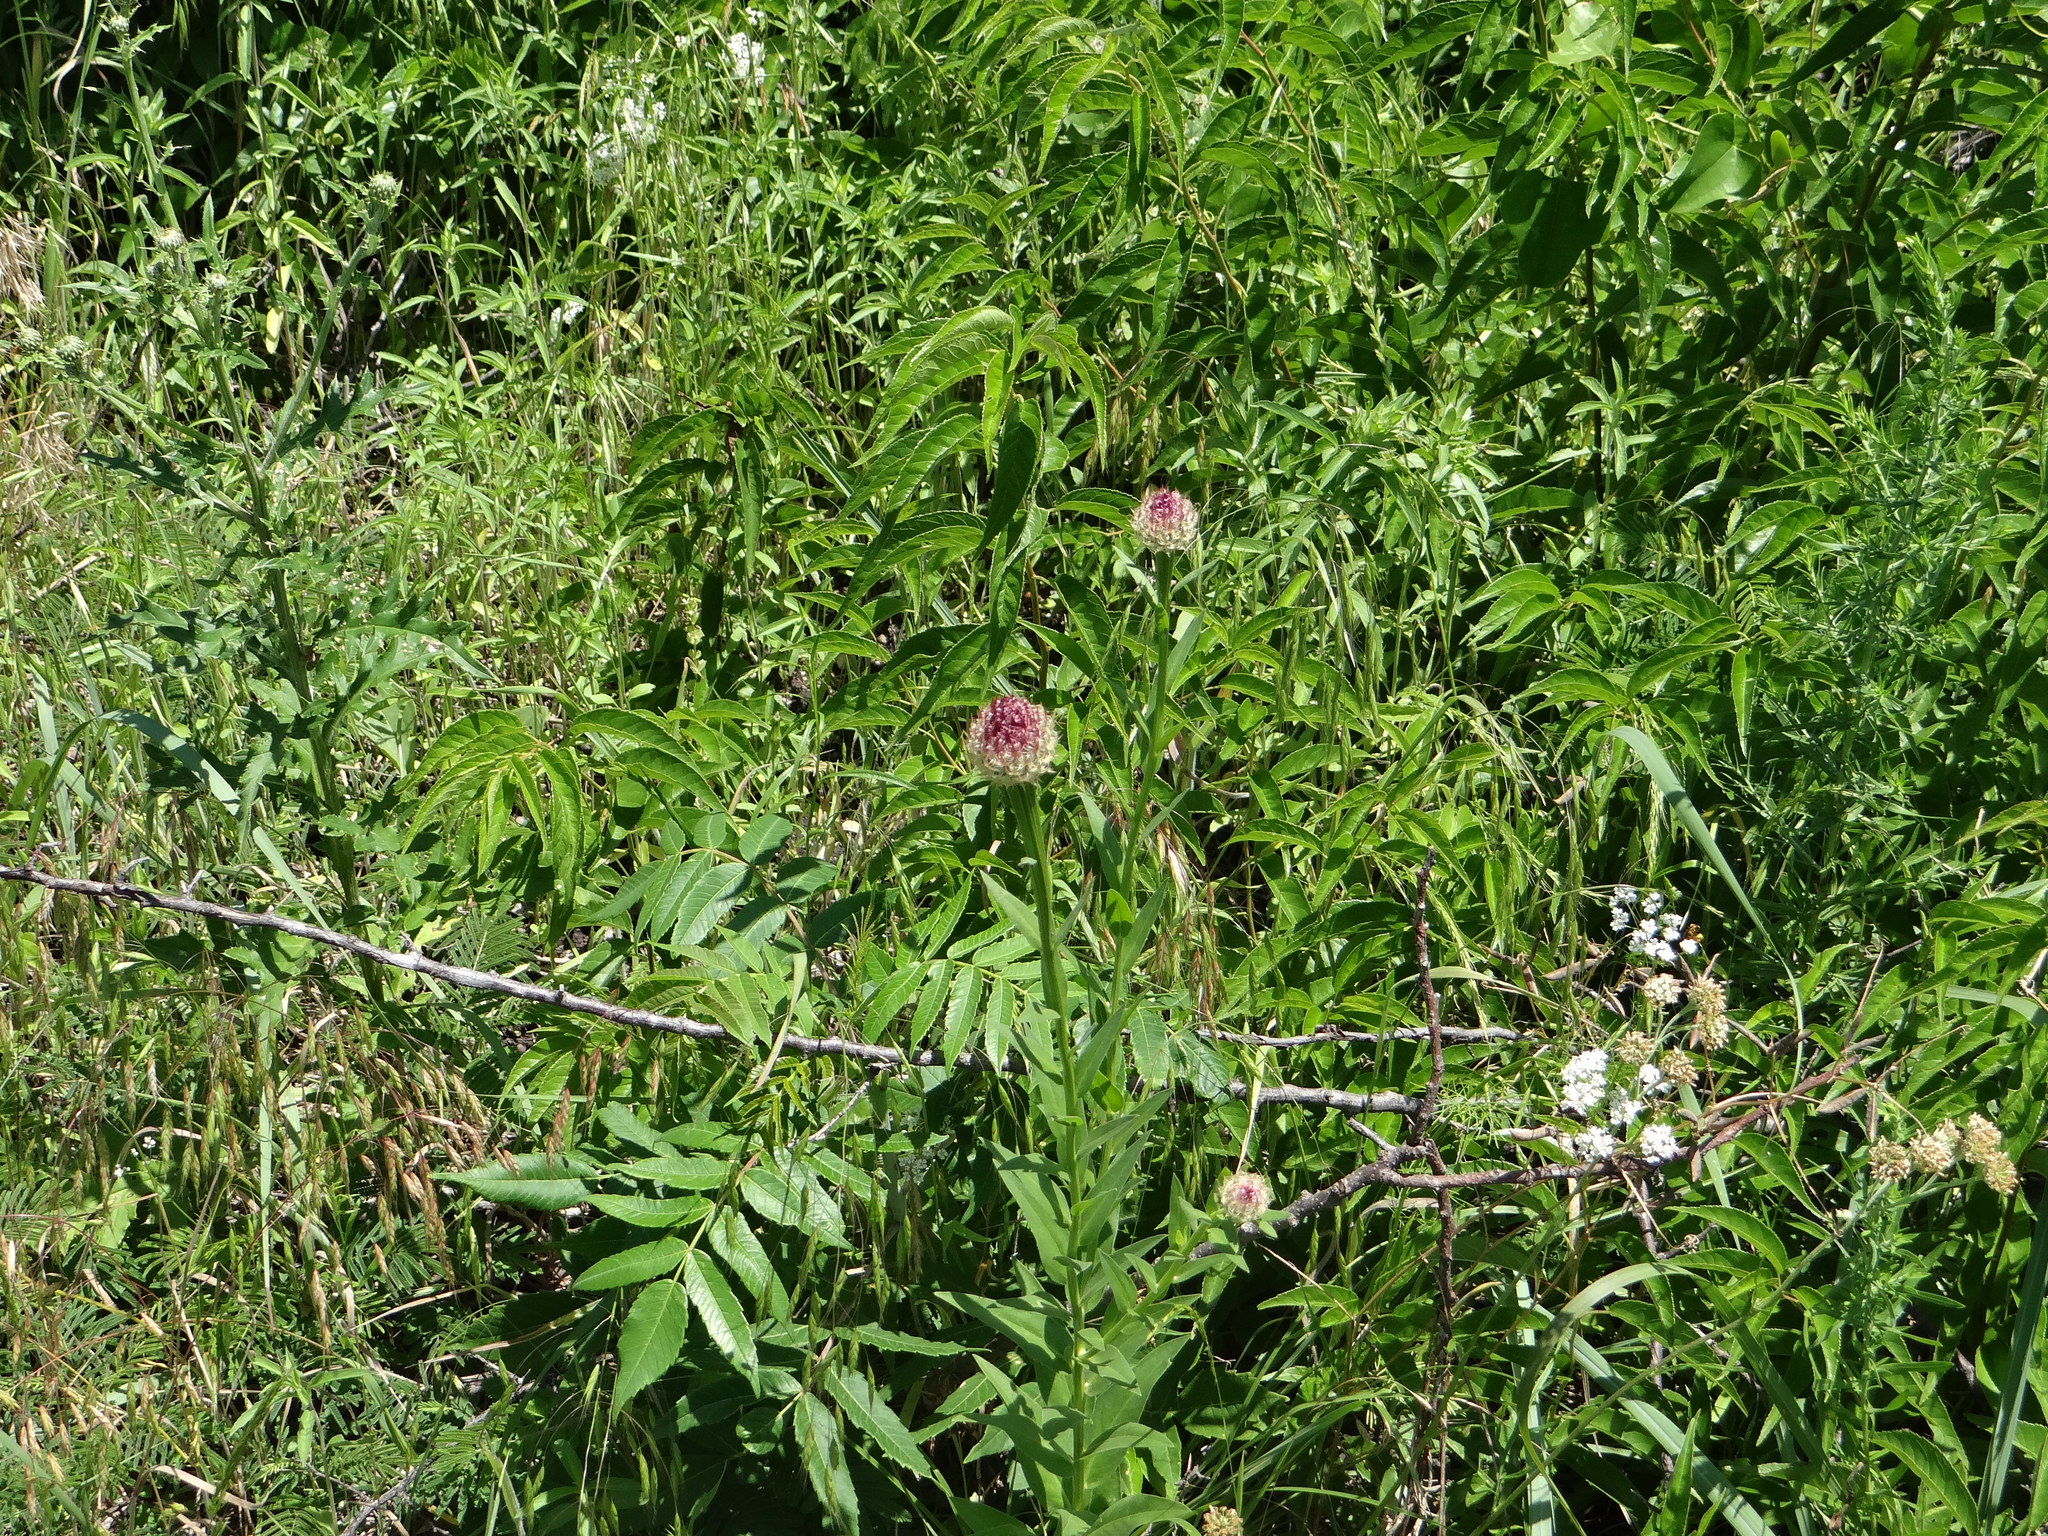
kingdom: Plantae
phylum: Tracheophyta
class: Magnoliopsida
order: Asterales
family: Asteraceae
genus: Plectocephalus
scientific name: Plectocephalus americanus
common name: American basket-flower
